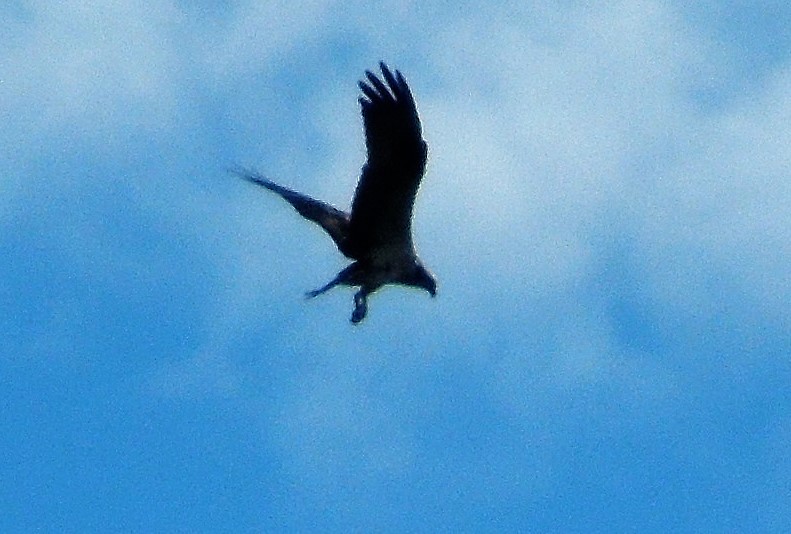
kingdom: Animalia
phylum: Chordata
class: Aves
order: Accipitriformes
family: Pandionidae
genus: Pandion
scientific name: Pandion haliaetus
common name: Osprey
